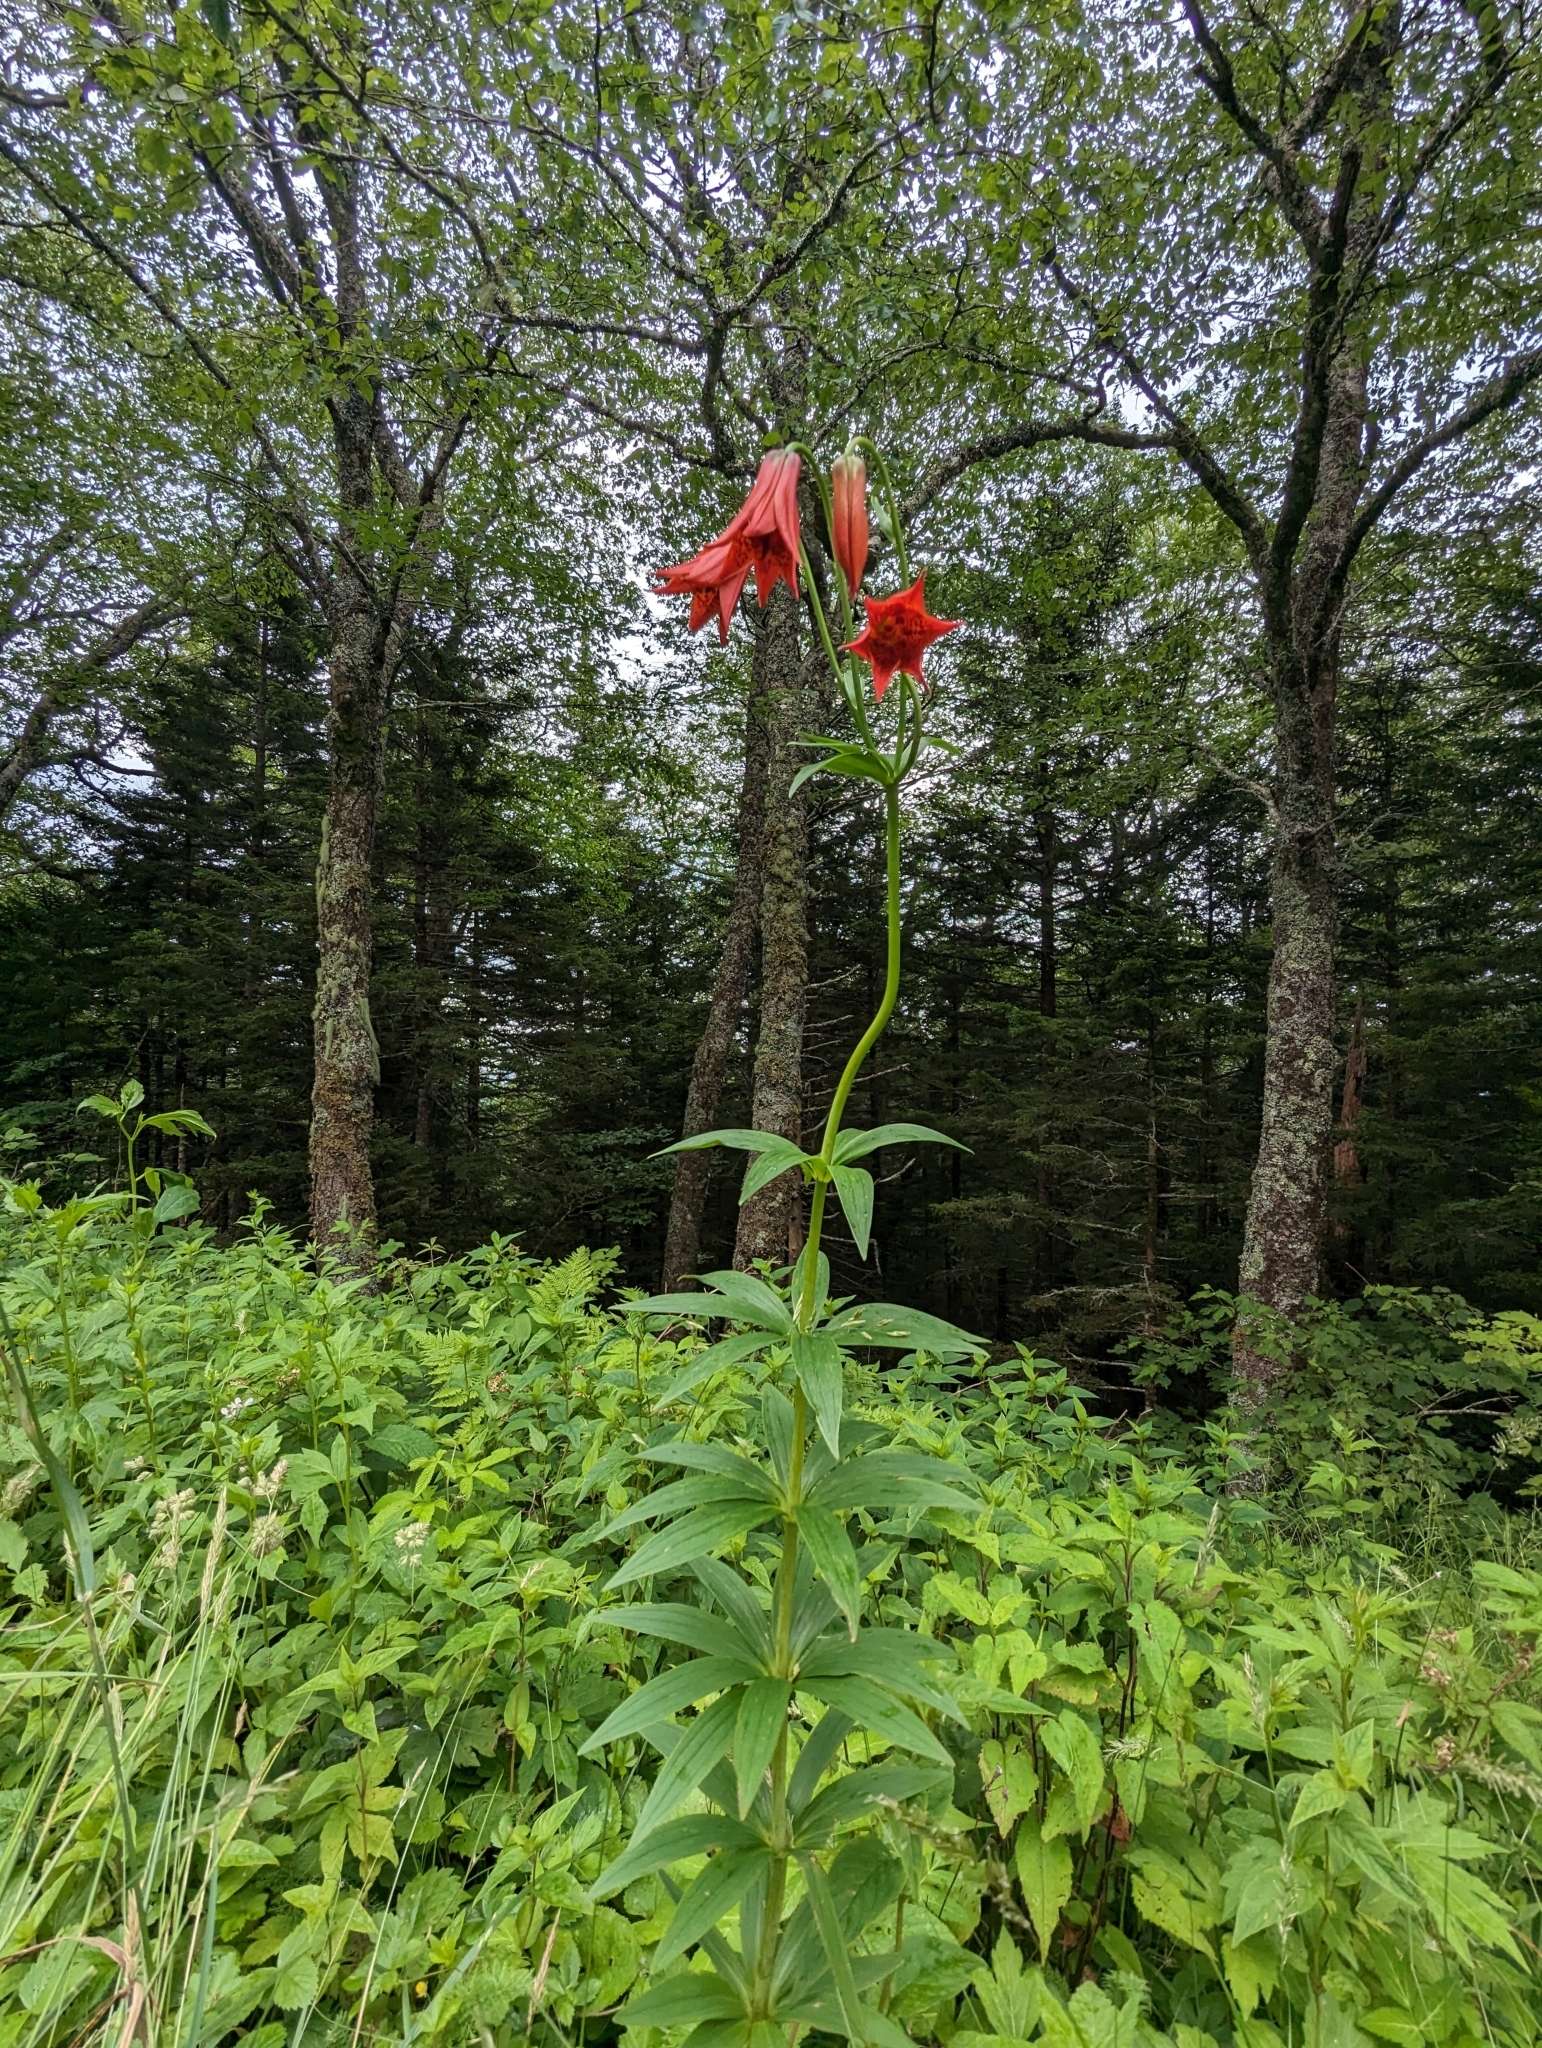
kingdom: Plantae
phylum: Tracheophyta
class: Liliopsida
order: Liliales
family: Liliaceae
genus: Lilium
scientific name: Lilium grayi
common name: Gray's lily
